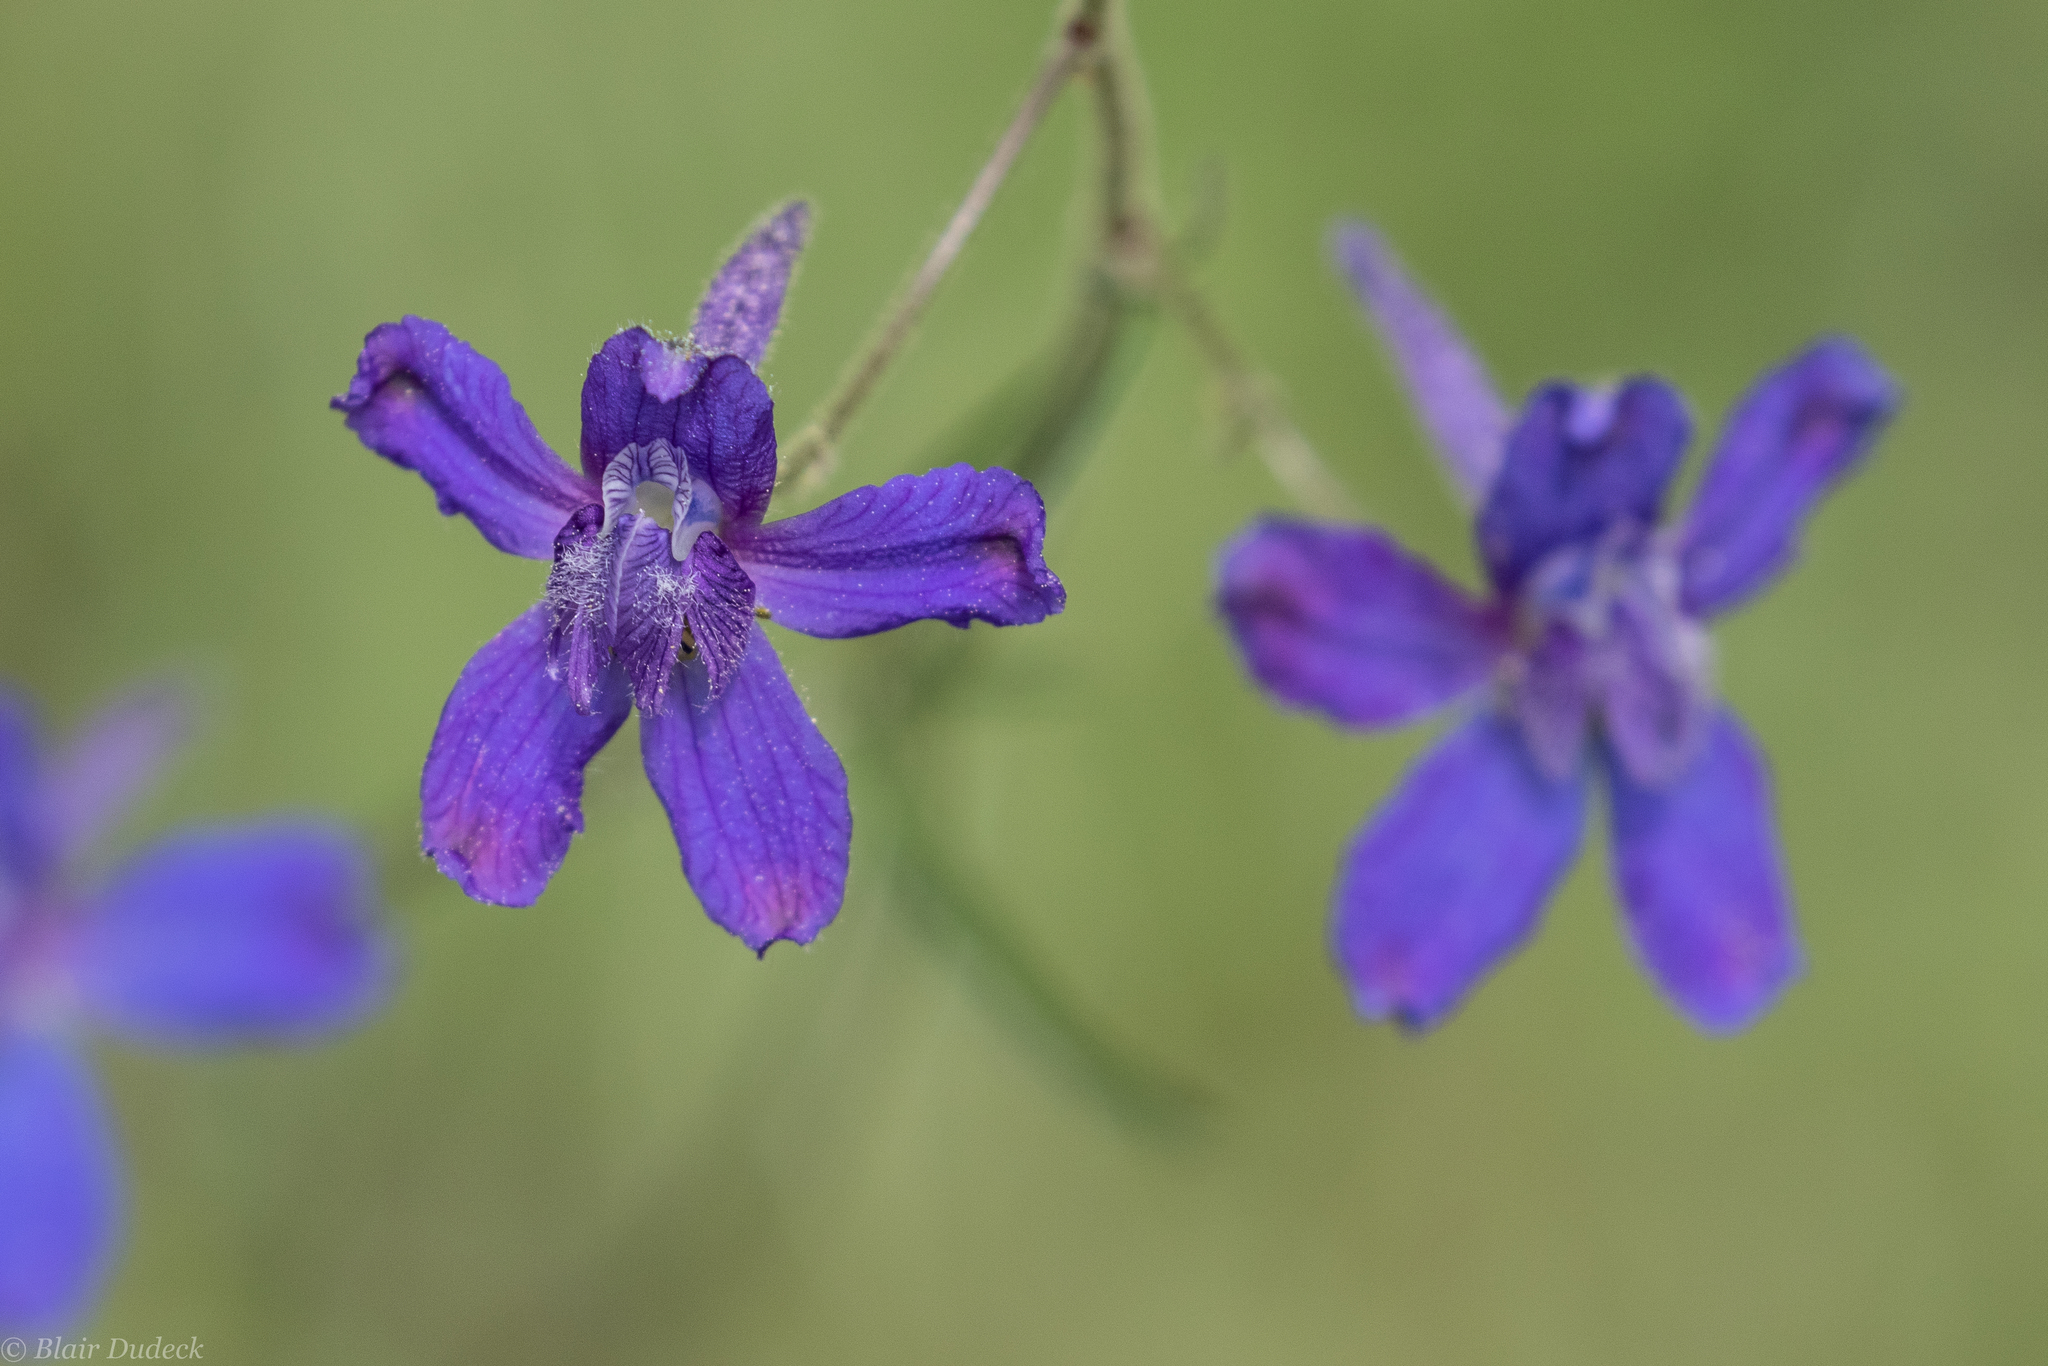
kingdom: Plantae
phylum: Tracheophyta
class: Magnoliopsida
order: Ranunculales
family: Ranunculaceae
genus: Delphinium
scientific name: Delphinium nuttallianum
